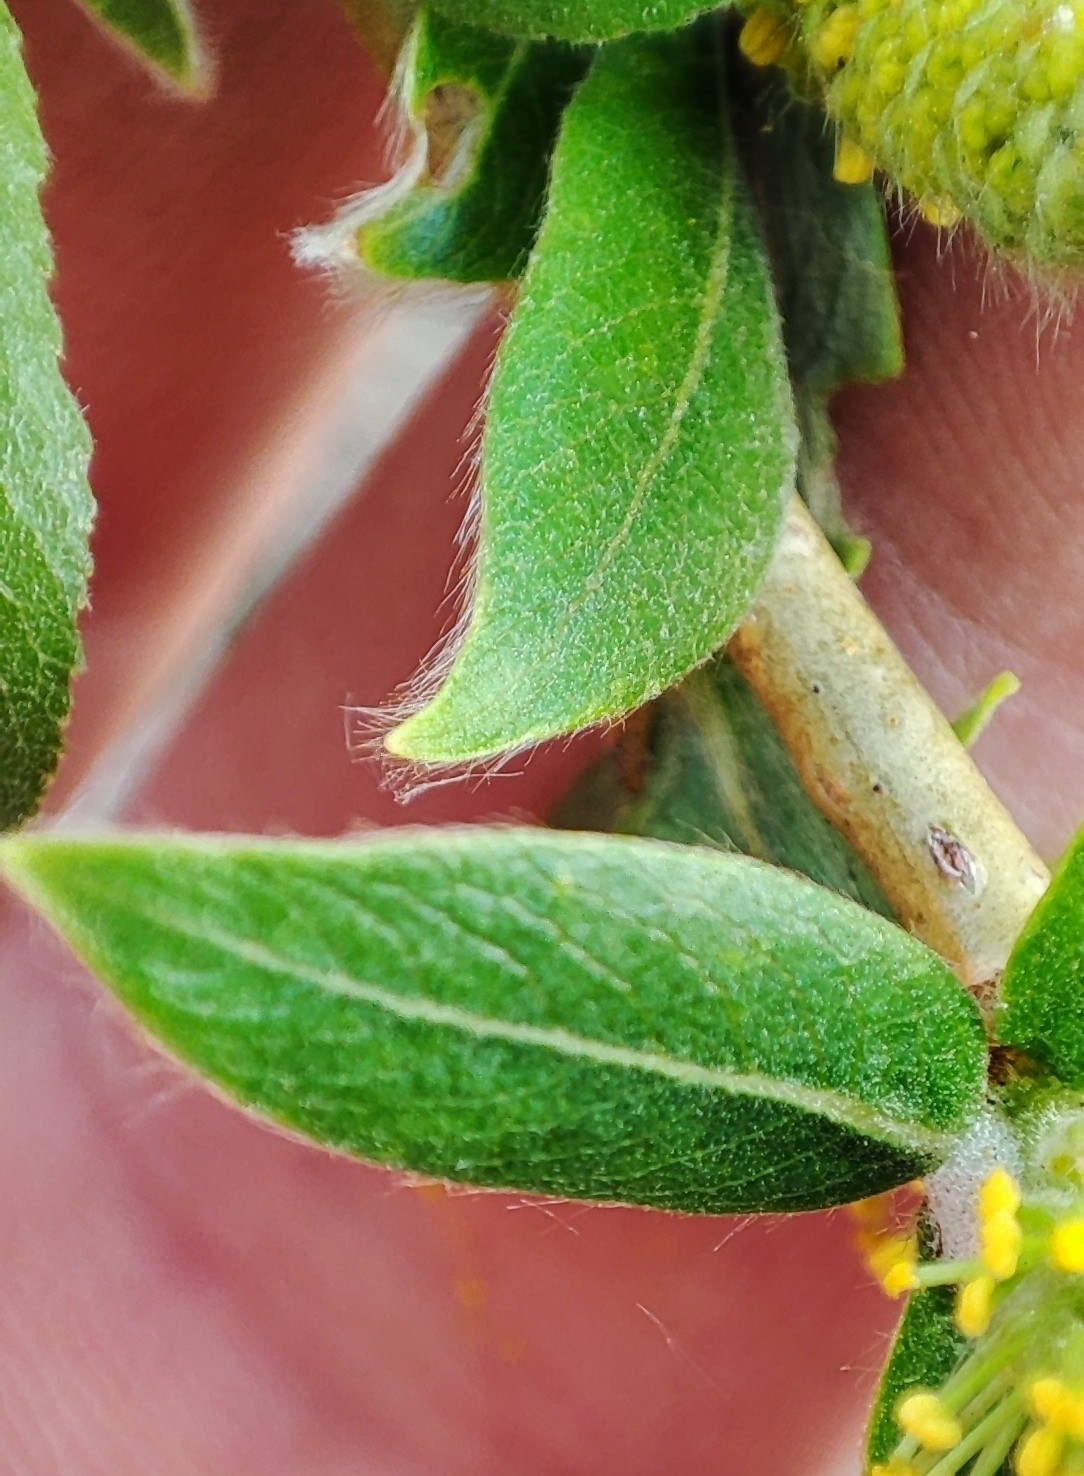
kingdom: Plantae
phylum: Tracheophyta
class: Magnoliopsida
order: Malpighiales
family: Salicaceae
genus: Salix
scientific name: Salix triandra
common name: Almond willow
